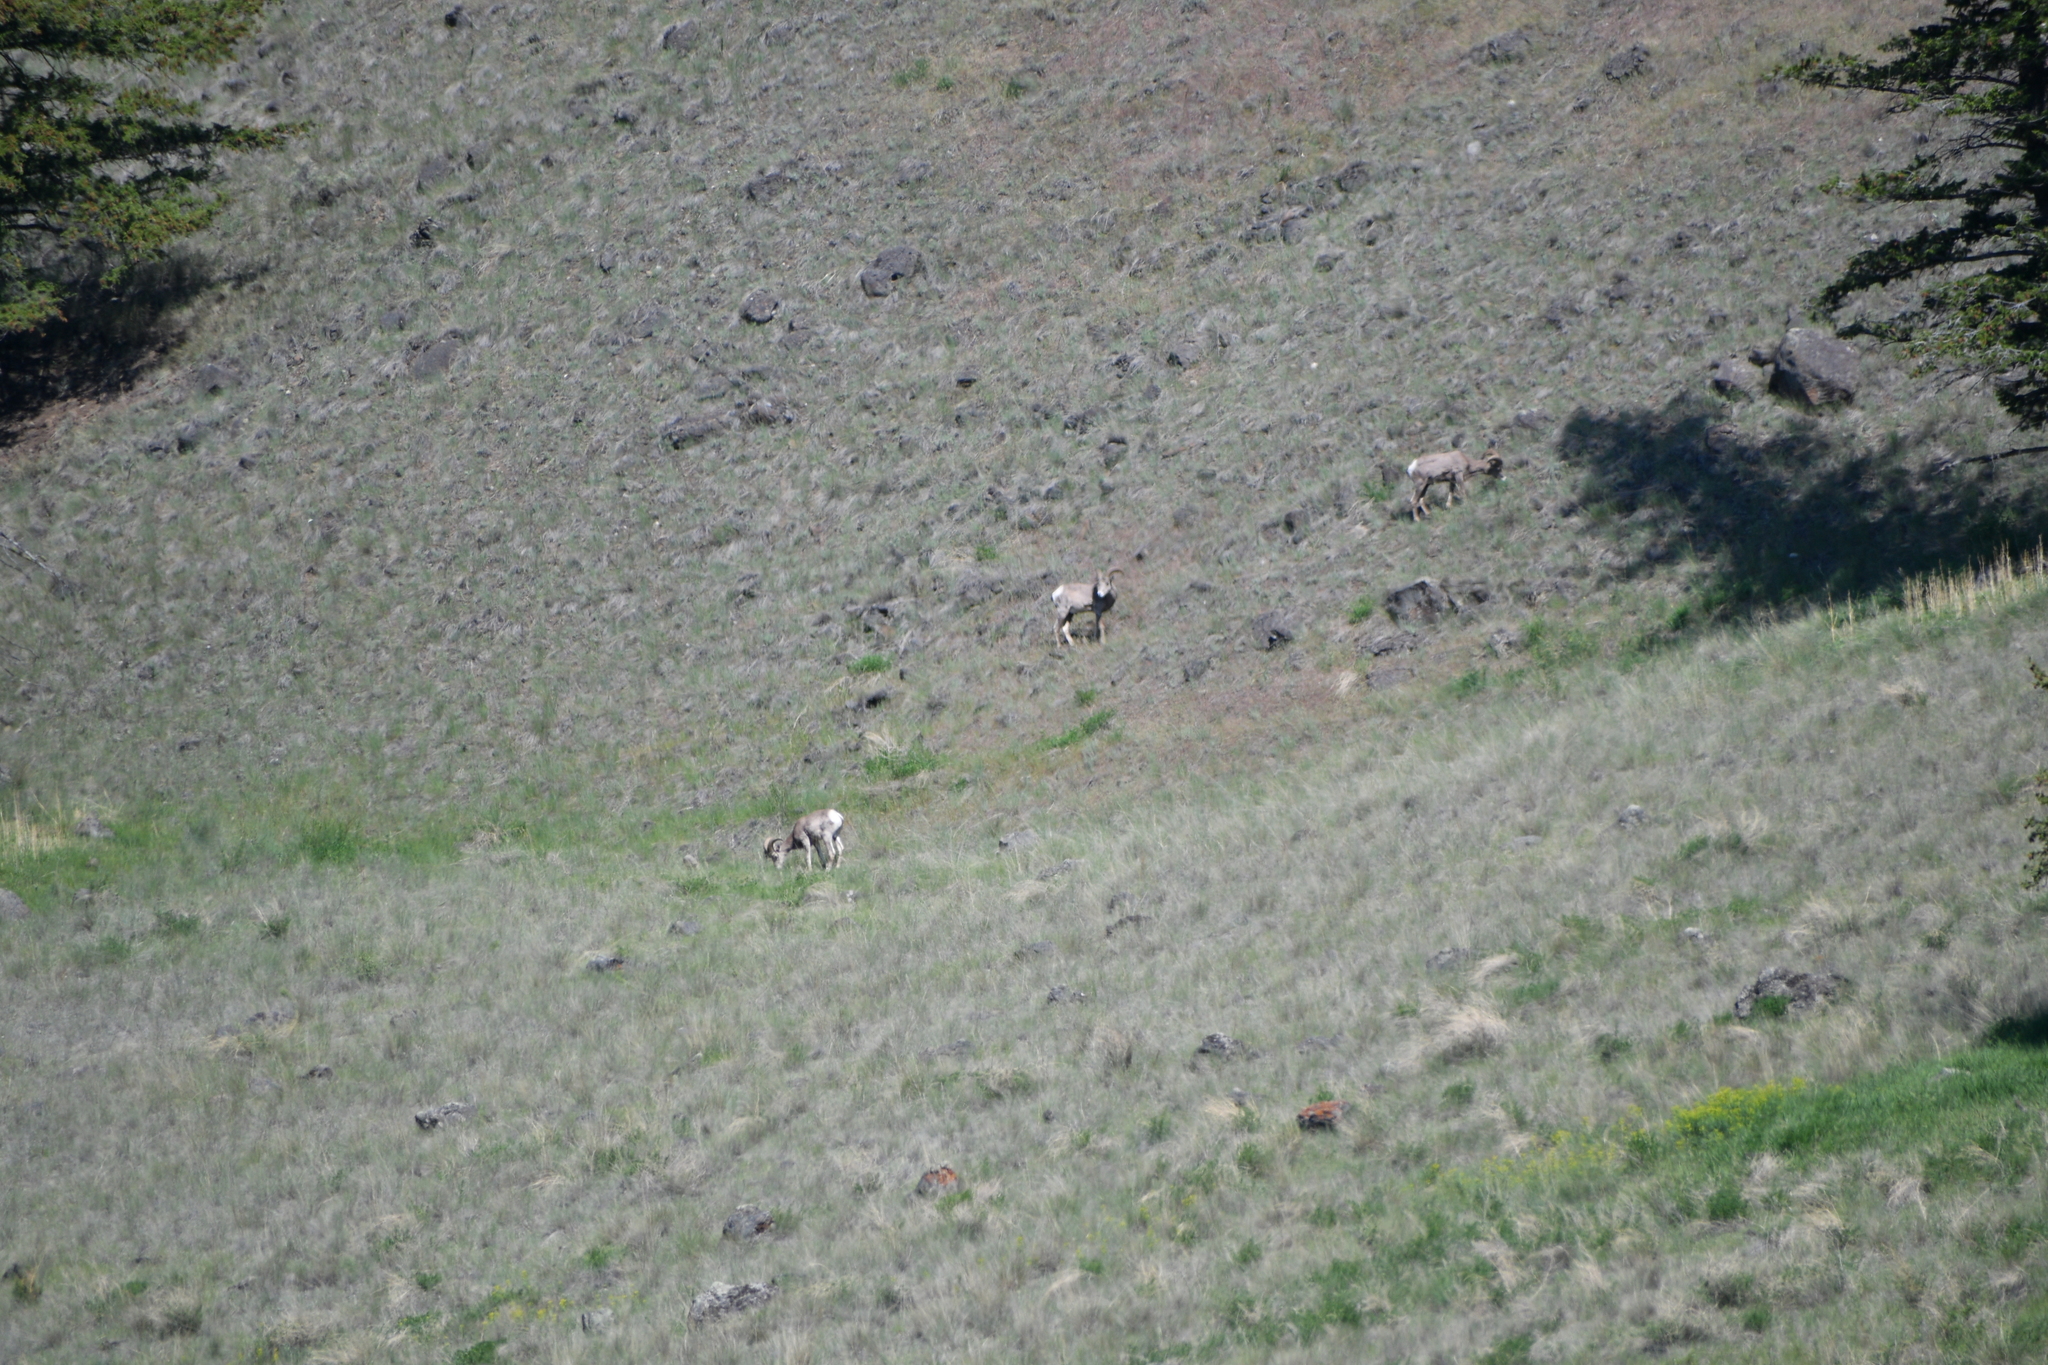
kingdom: Animalia
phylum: Chordata
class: Mammalia
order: Artiodactyla
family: Bovidae
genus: Ovis
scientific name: Ovis canadensis
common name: Bighorn sheep
